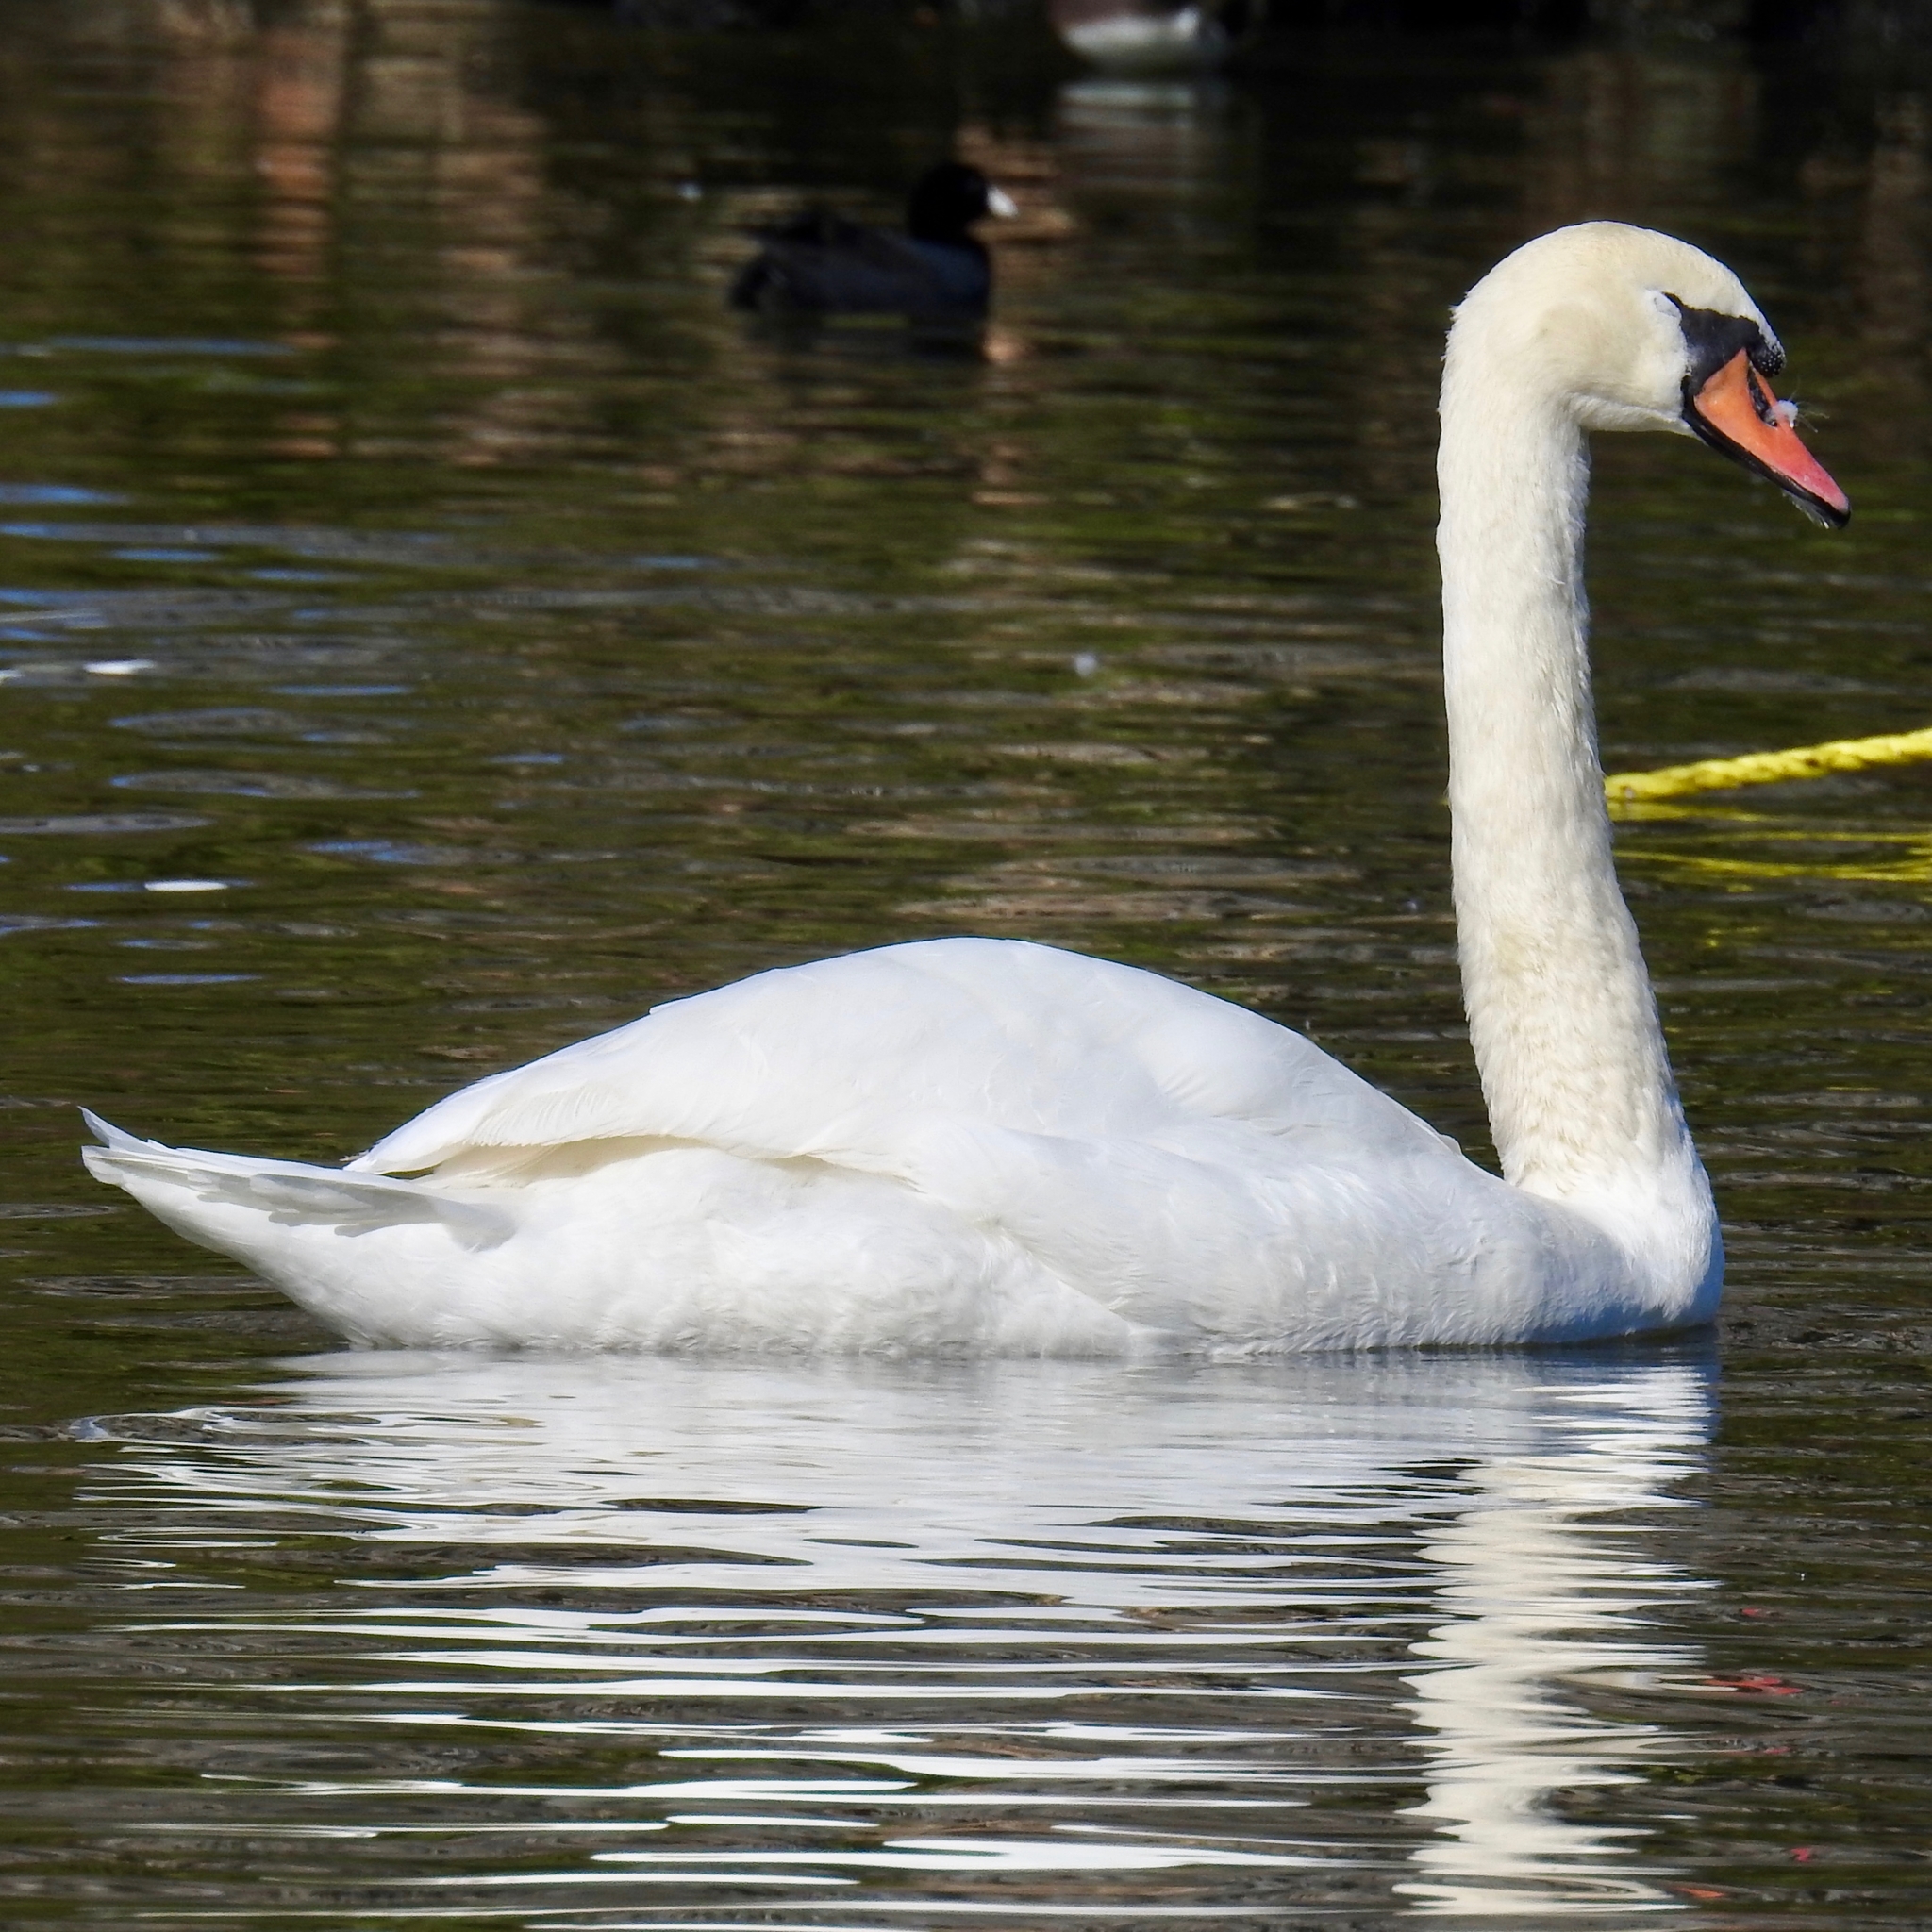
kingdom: Animalia
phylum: Chordata
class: Aves
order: Anseriformes
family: Anatidae
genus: Cygnus
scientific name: Cygnus olor
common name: Mute swan
